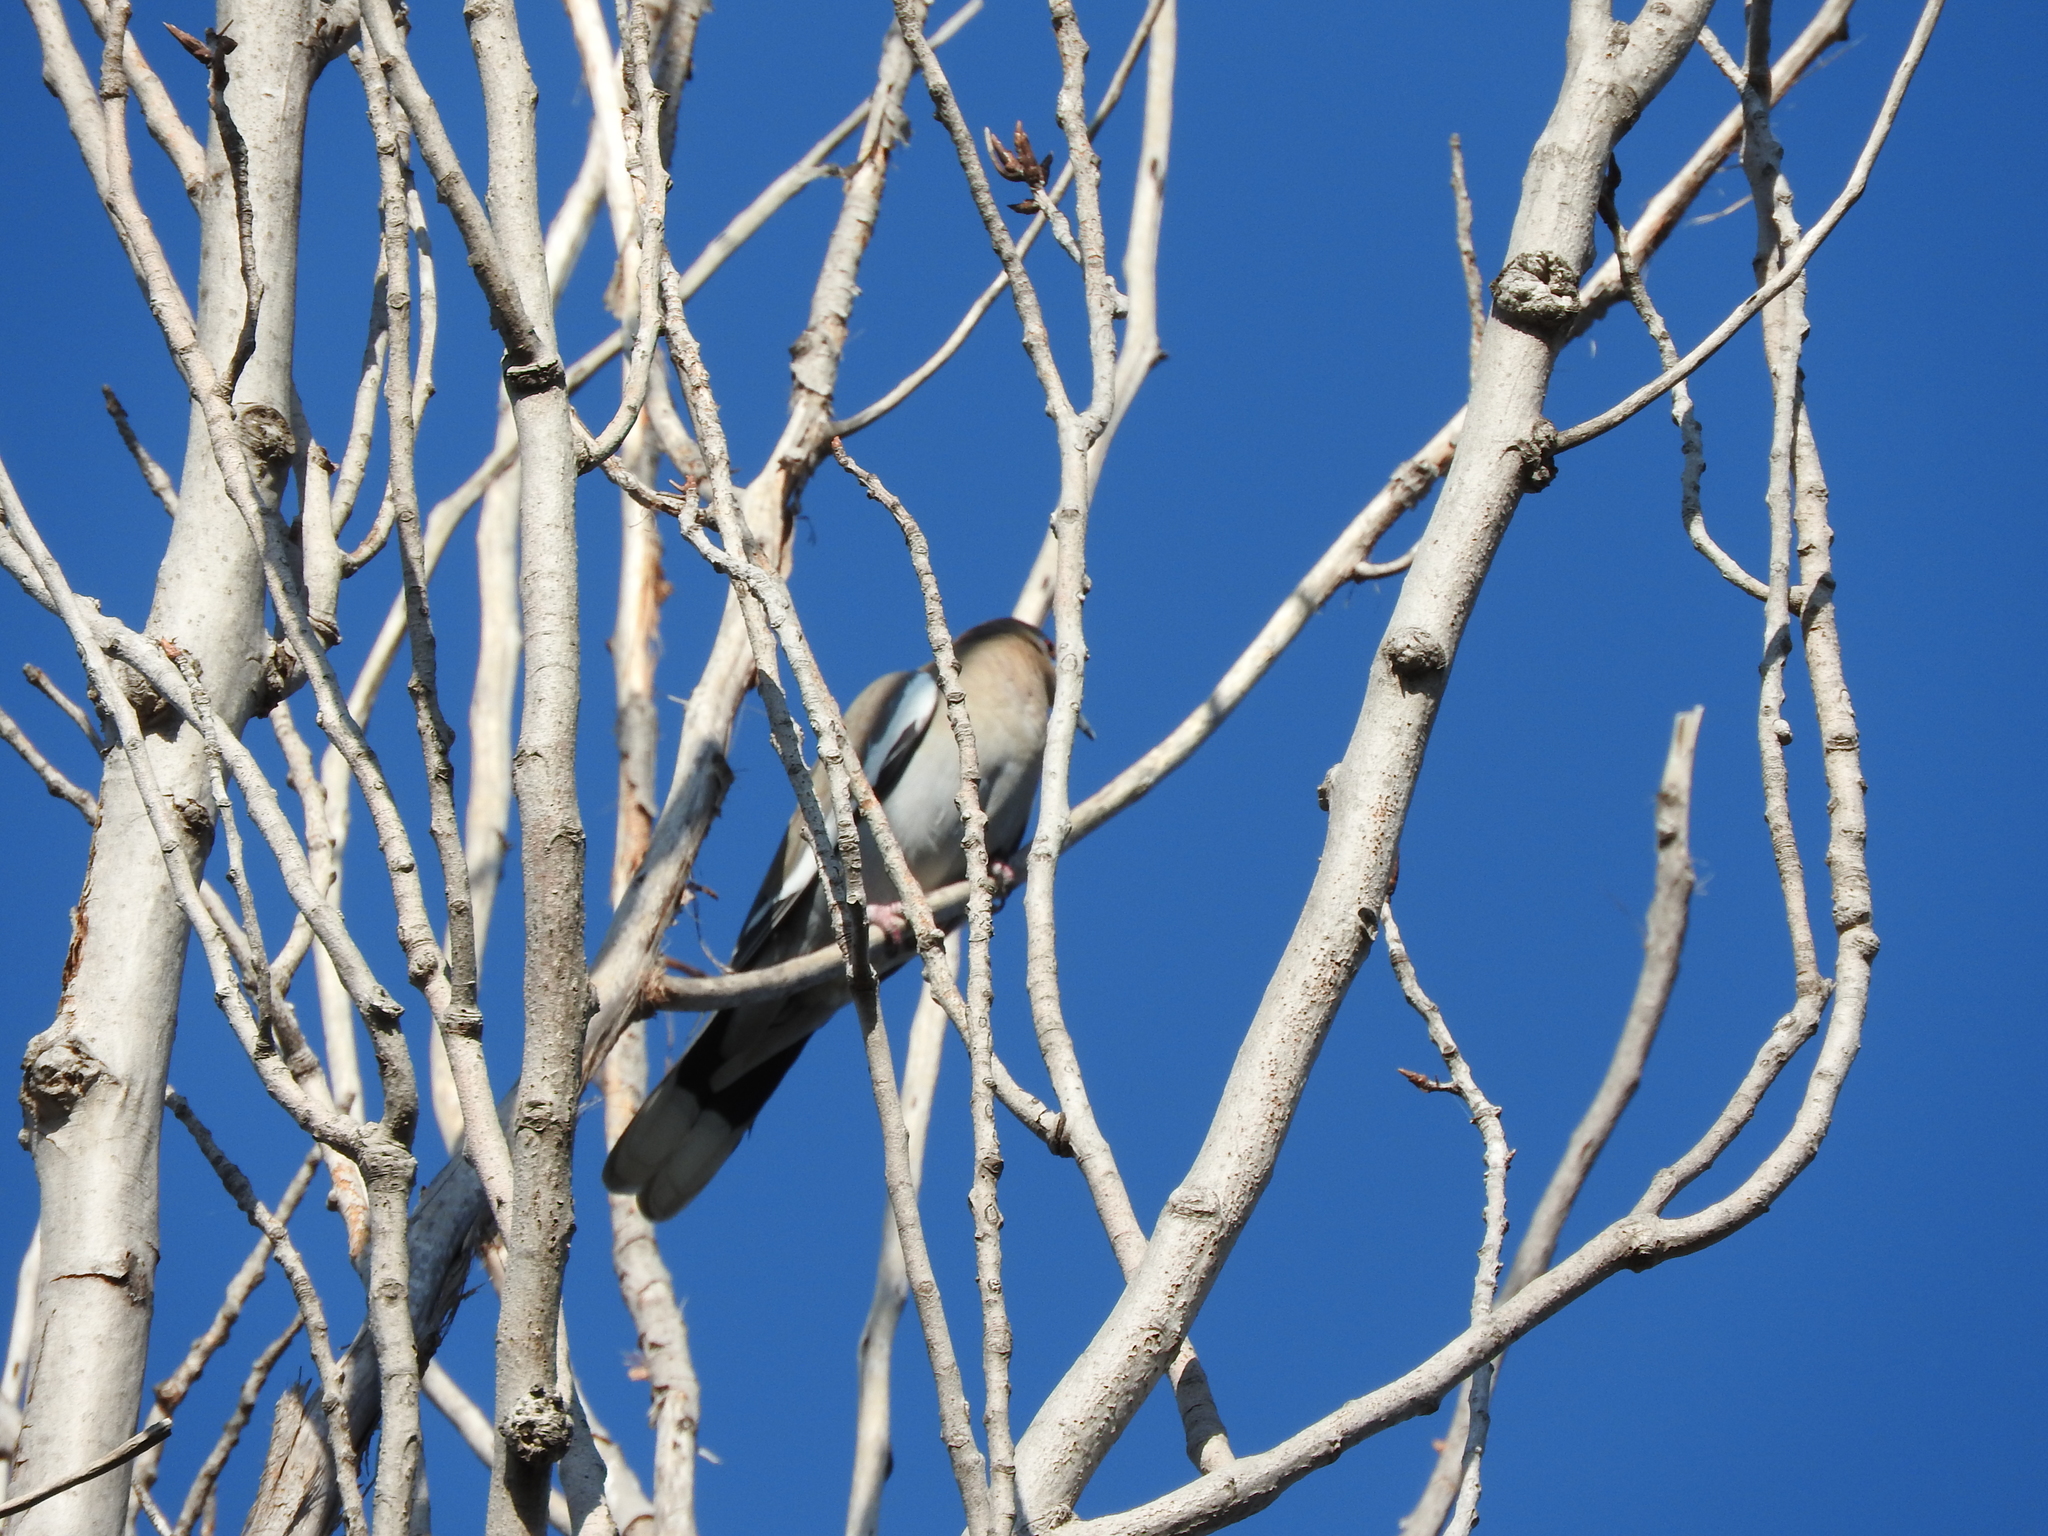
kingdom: Animalia
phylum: Chordata
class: Aves
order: Columbiformes
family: Columbidae
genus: Zenaida
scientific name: Zenaida asiatica
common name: White-winged dove
